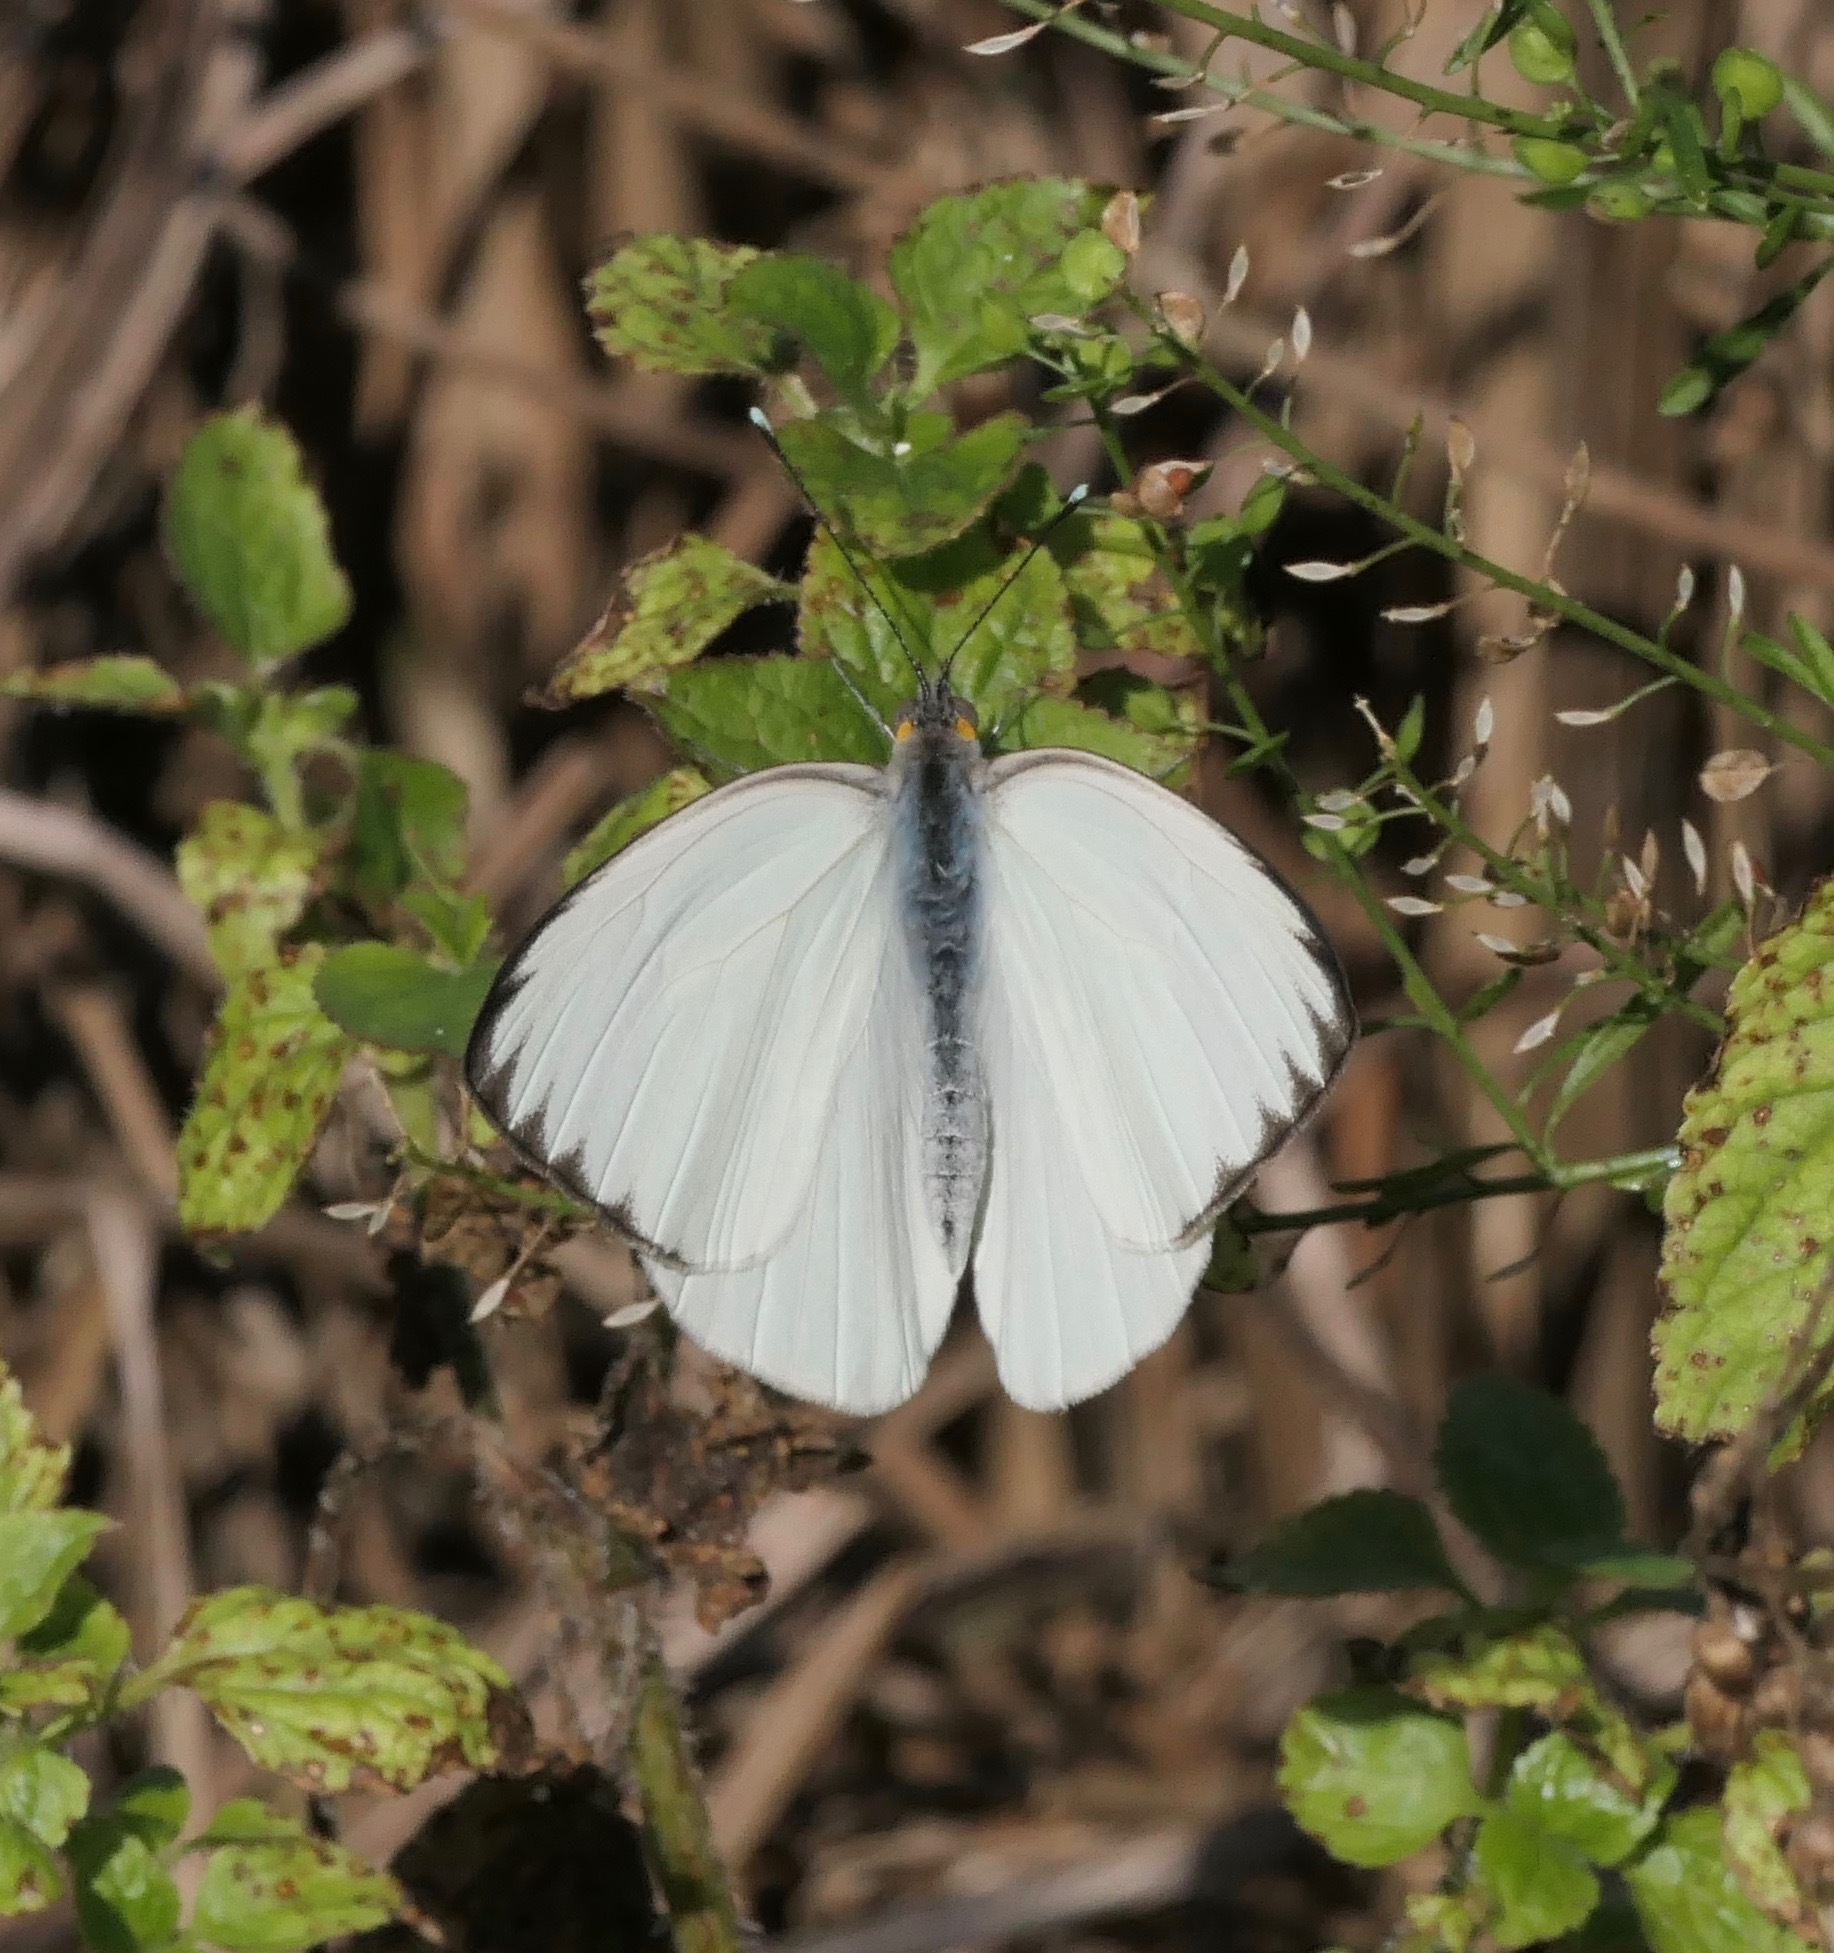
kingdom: Animalia
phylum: Arthropoda
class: Insecta
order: Lepidoptera
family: Pieridae
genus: Ascia
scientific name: Ascia monuste
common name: Great southern white
